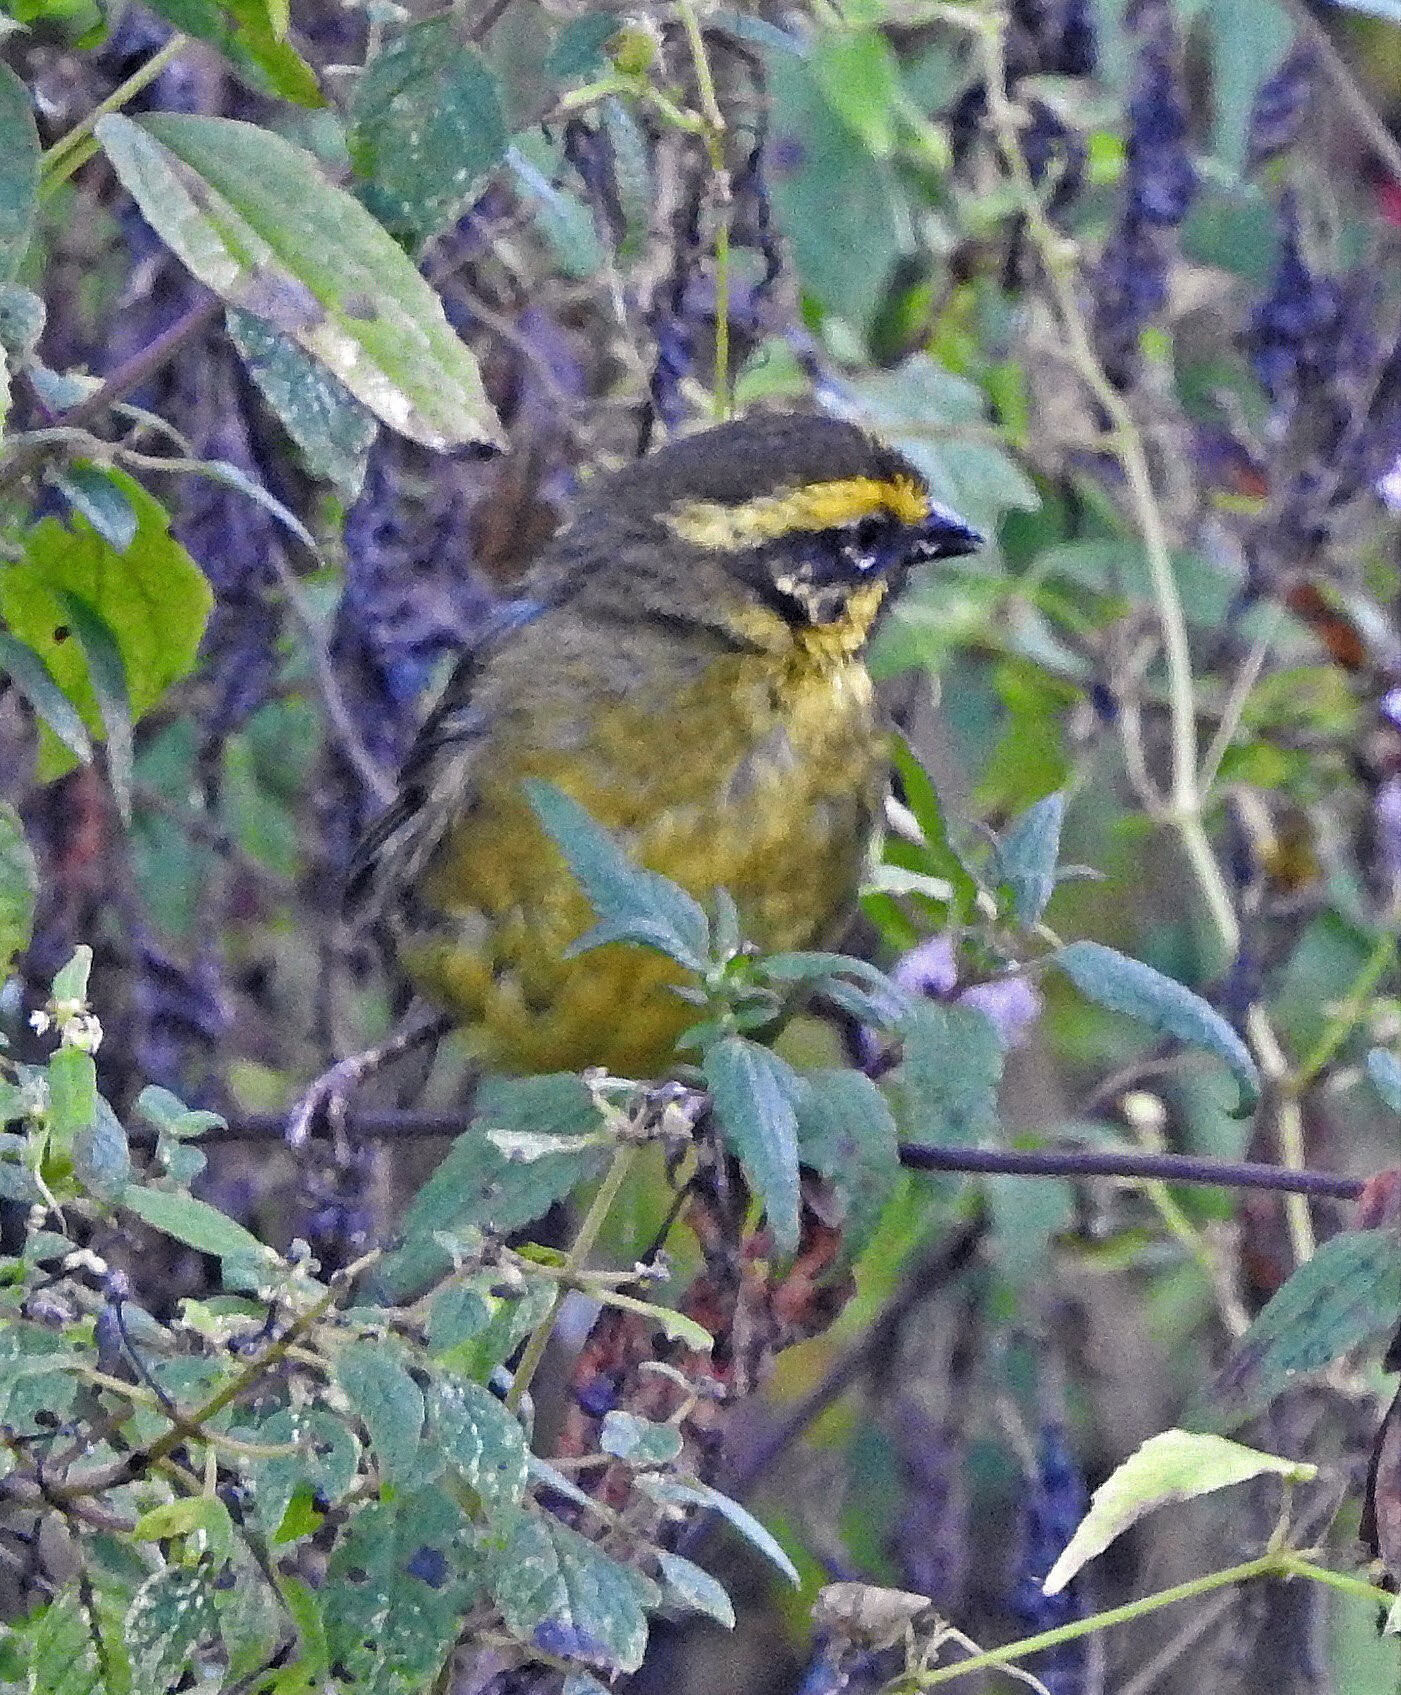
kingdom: Animalia
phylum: Chordata
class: Aves
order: Passeriformes
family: Passerellidae
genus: Atlapetes
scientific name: Atlapetes citrinellus
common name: Yellow-striped brushfinch
